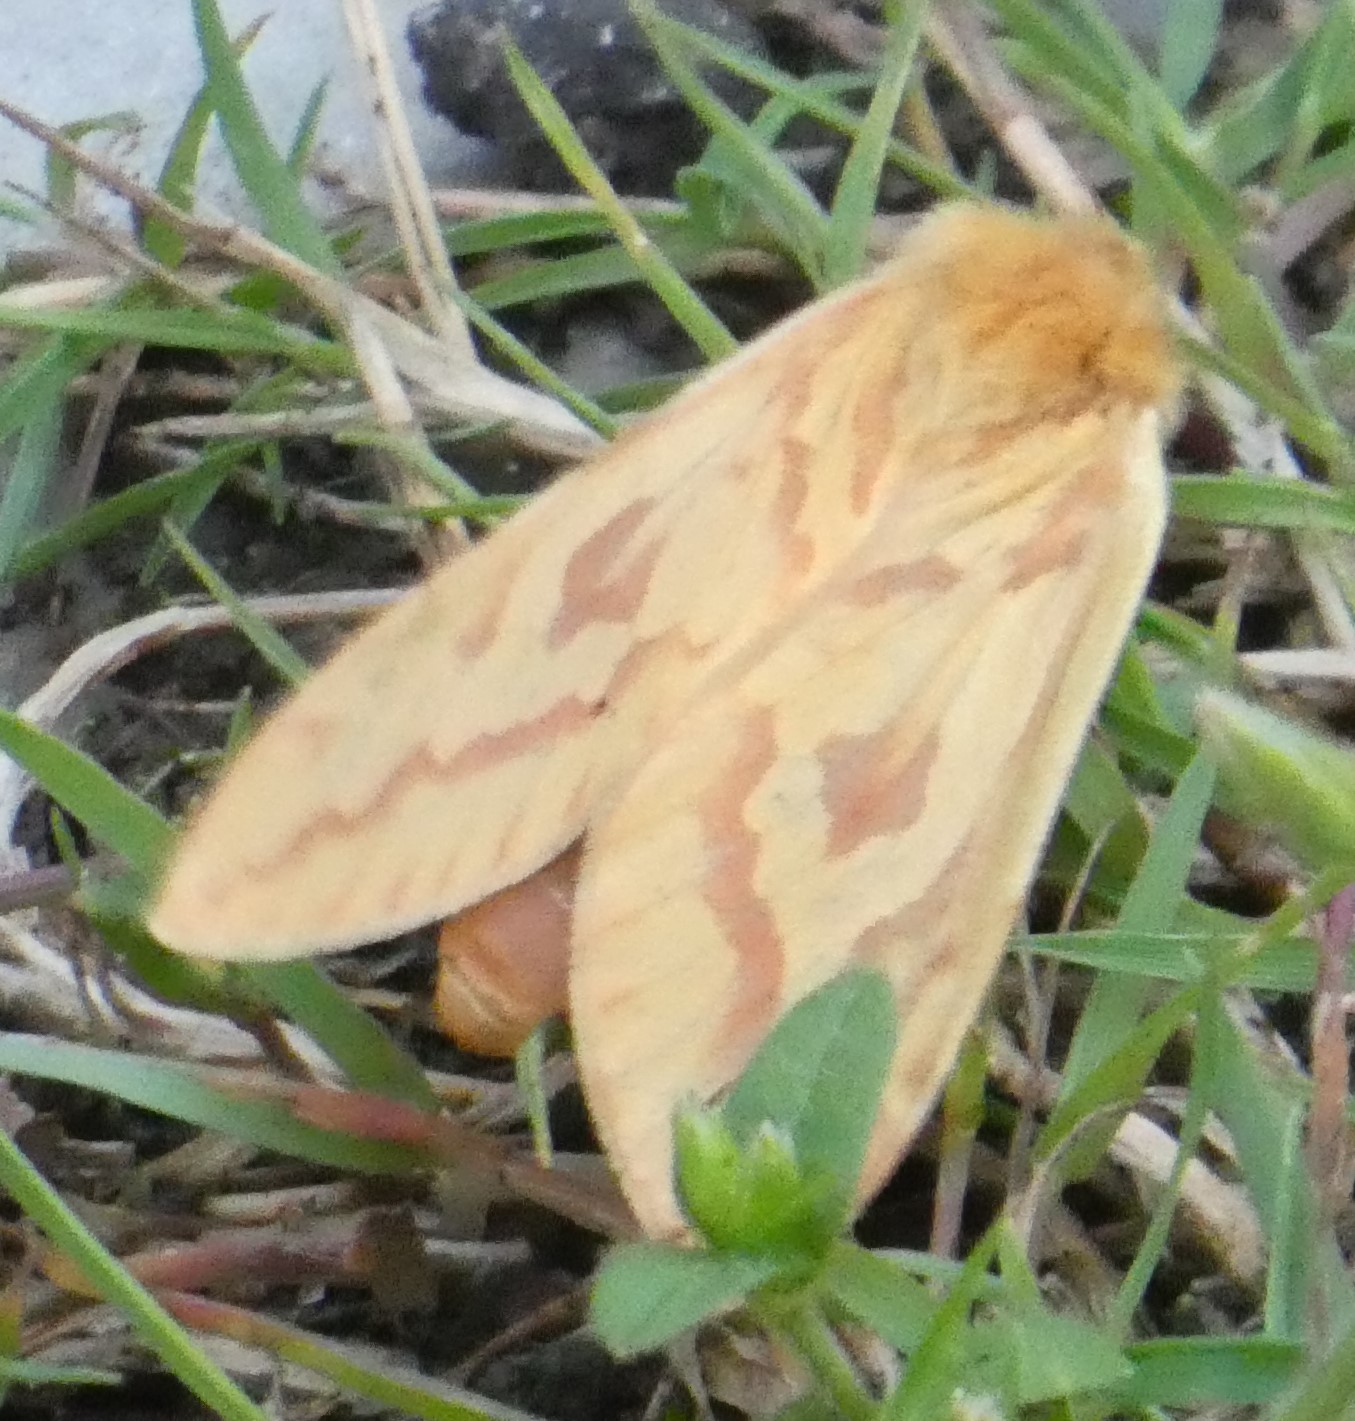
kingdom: Animalia
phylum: Arthropoda
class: Insecta
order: Lepidoptera
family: Hepialidae
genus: Hepialus
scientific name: Hepialus humuli
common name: Ghost moth
